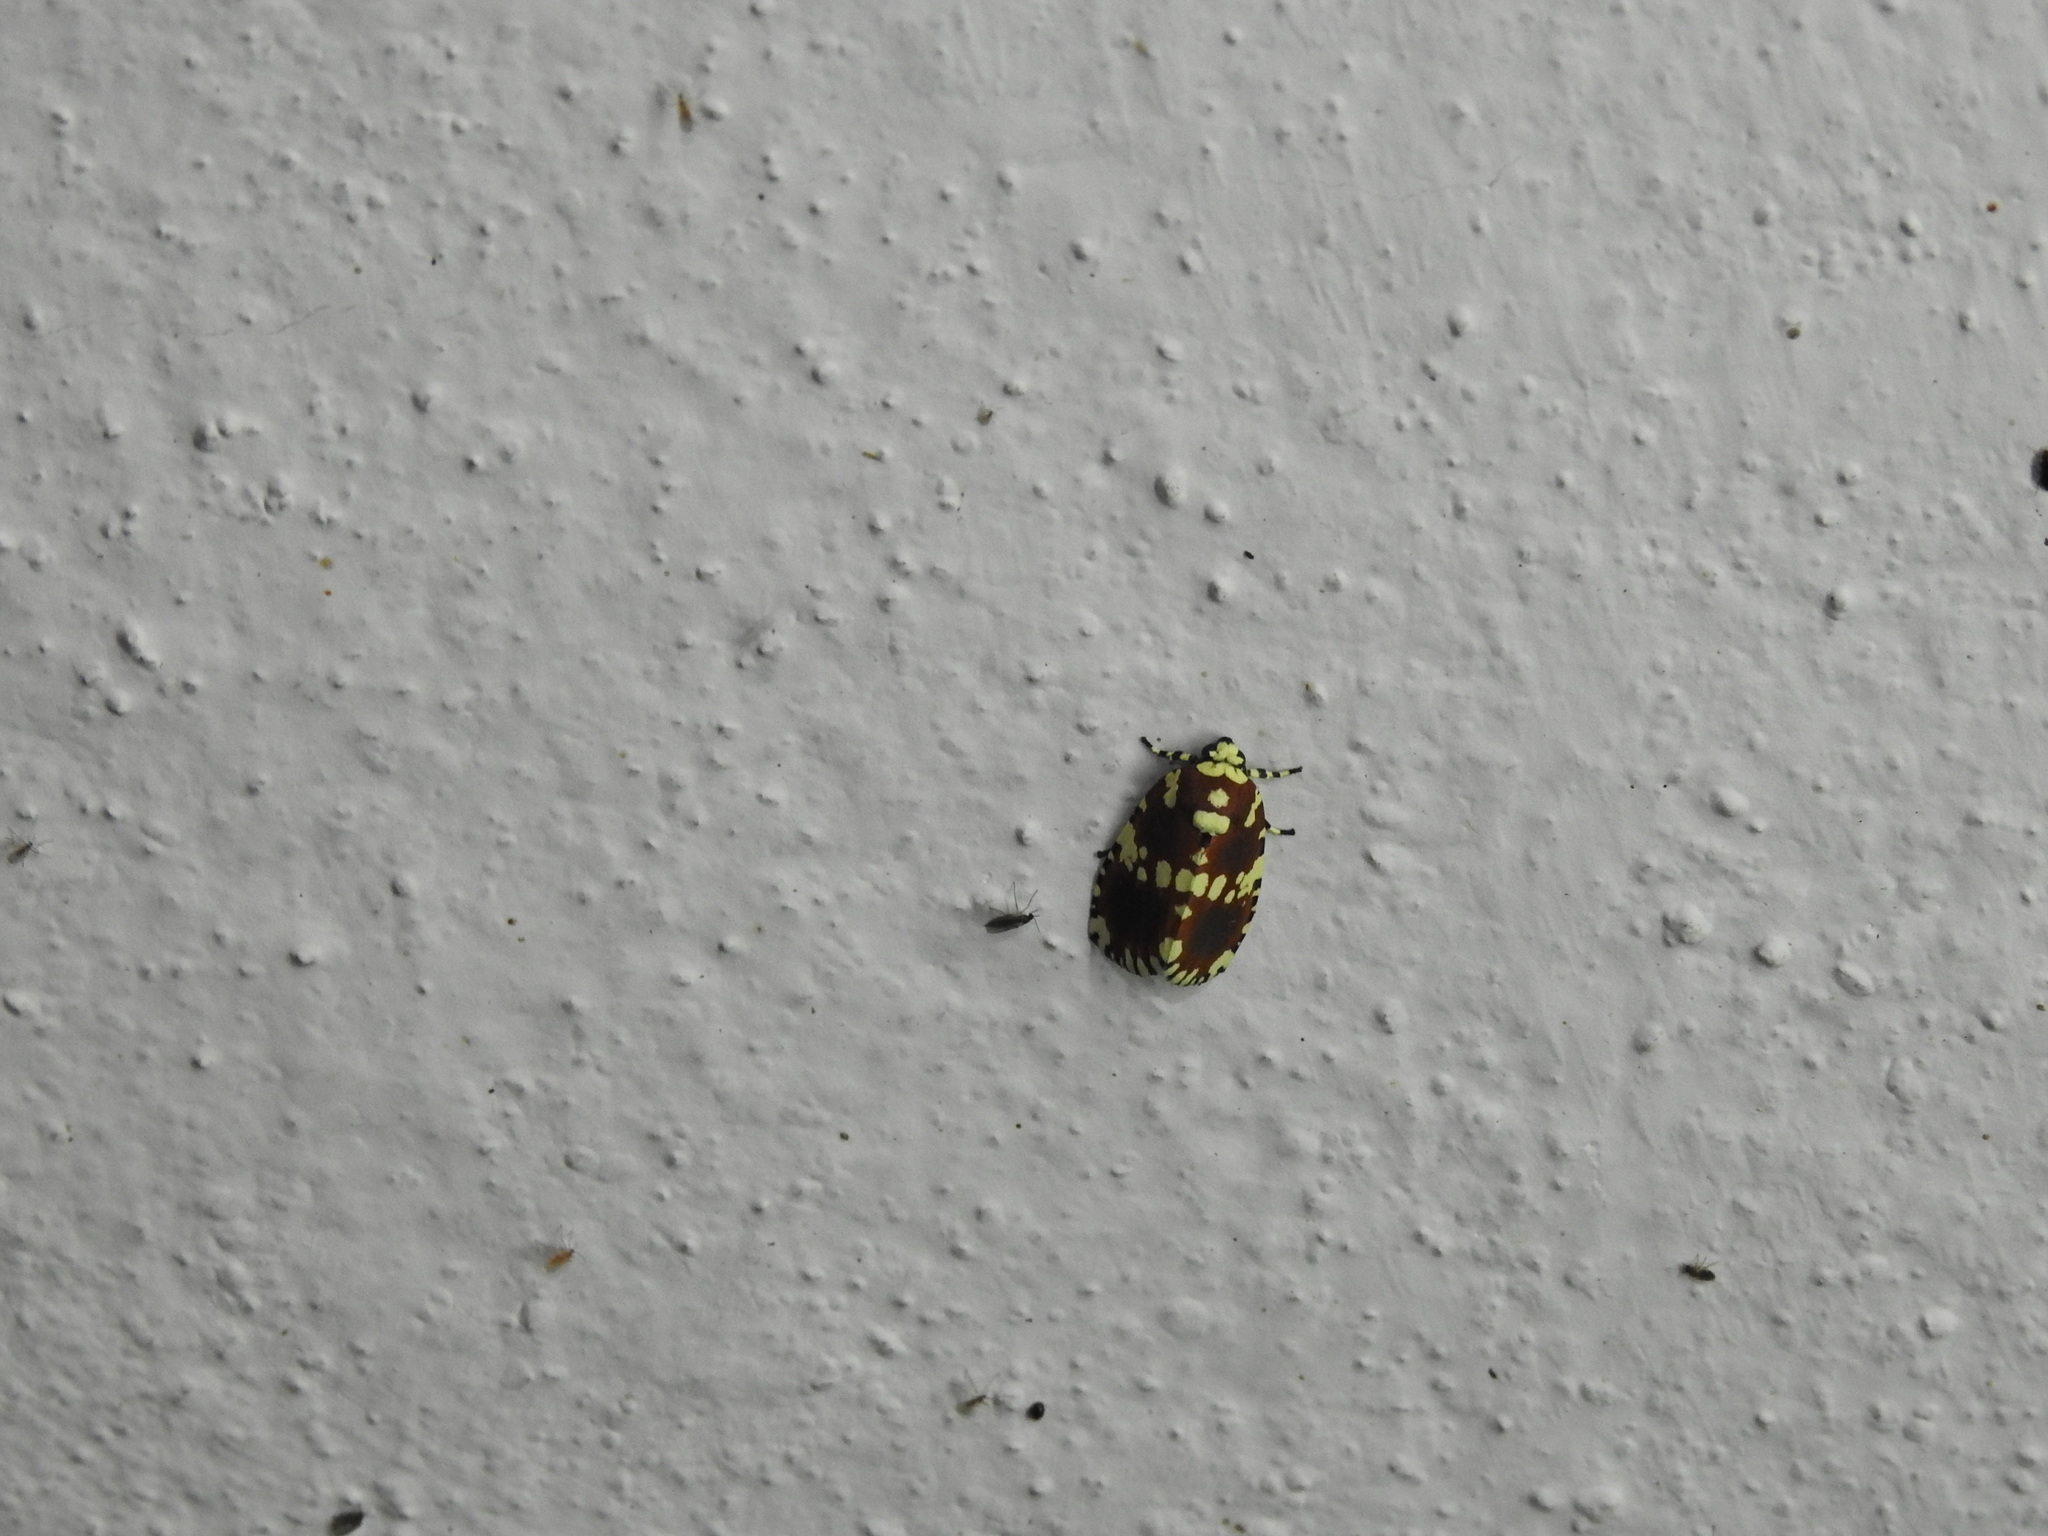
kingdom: Animalia
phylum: Arthropoda
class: Insecta
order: Lepidoptera
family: Noctuidae
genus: Yepcalphis
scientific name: Yepcalphis dilectissima
